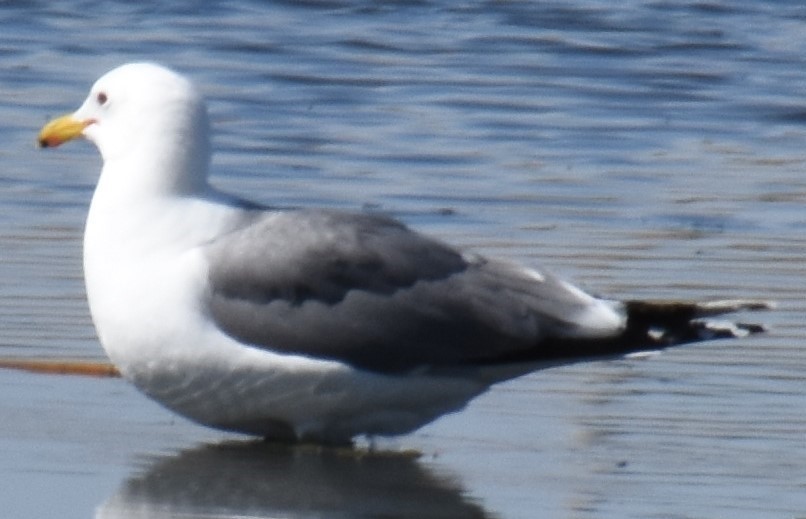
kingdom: Animalia
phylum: Chordata
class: Aves
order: Charadriiformes
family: Laridae
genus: Larus
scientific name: Larus californicus
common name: California gull
